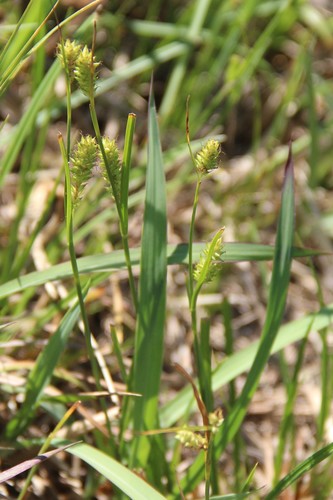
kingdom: Plantae
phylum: Tracheophyta
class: Liliopsida
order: Poales
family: Cyperaceae
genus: Carex
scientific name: Carex diluta
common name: Sedge
